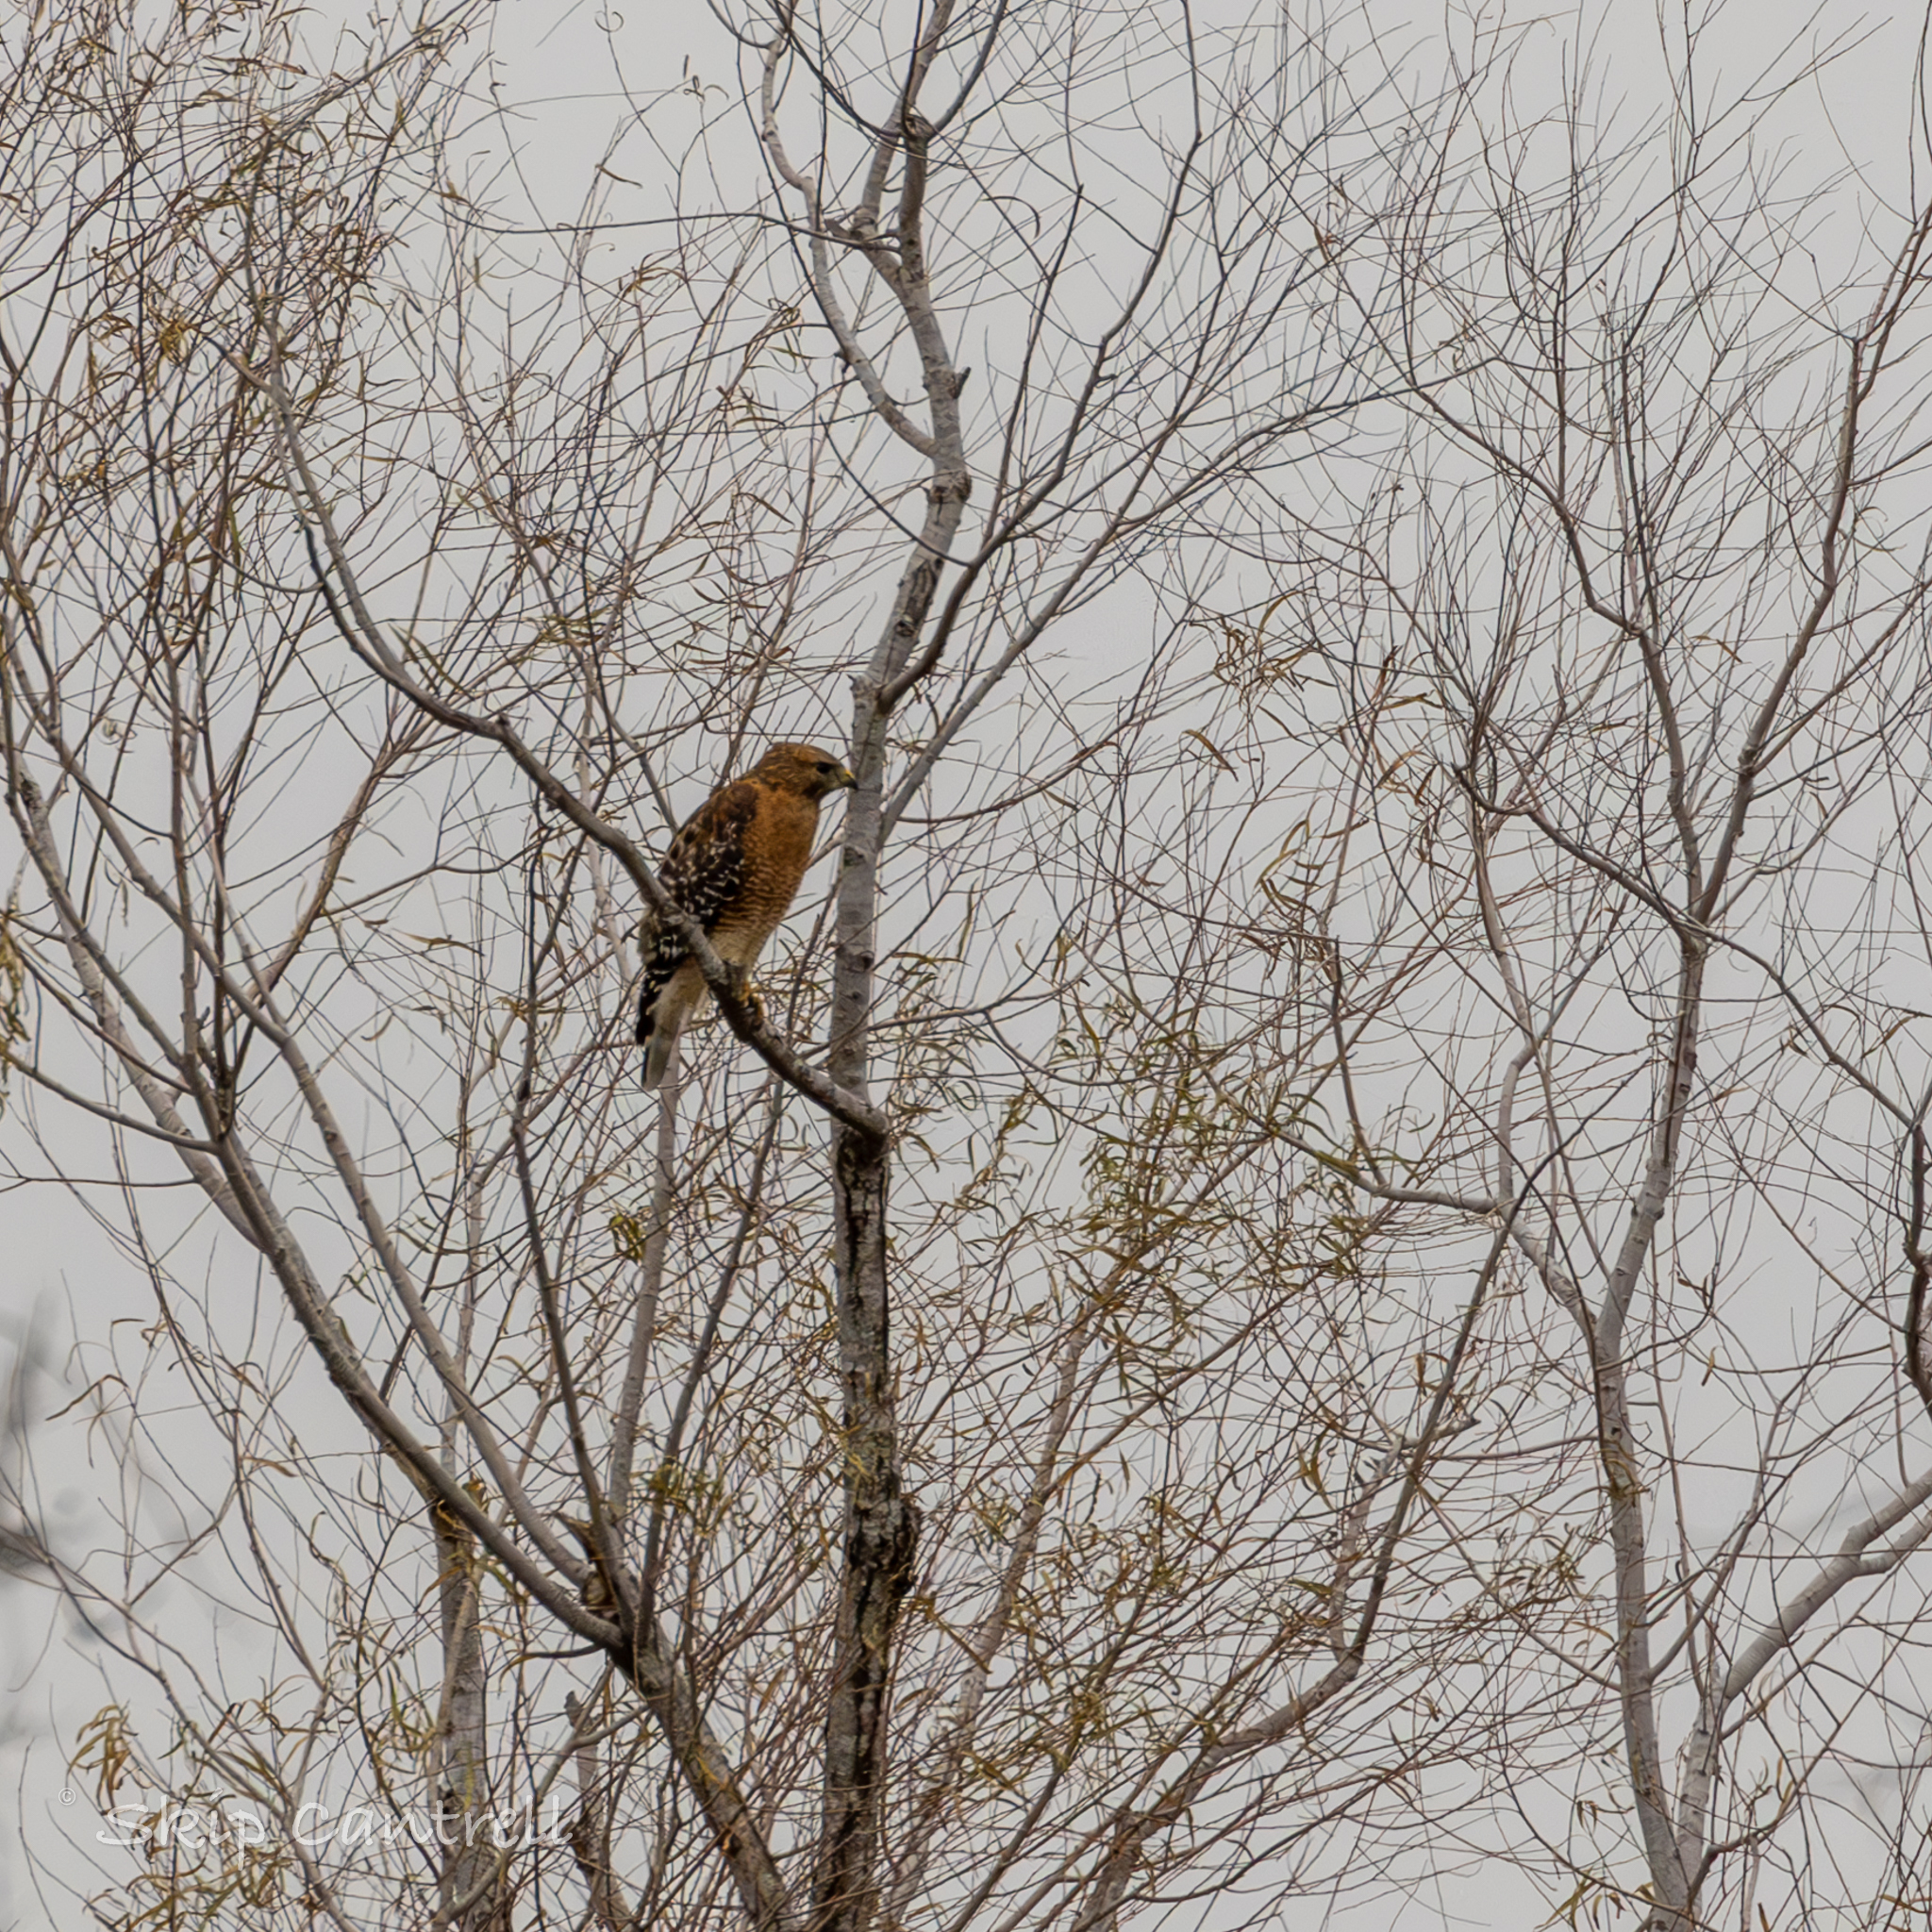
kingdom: Animalia
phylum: Chordata
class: Aves
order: Accipitriformes
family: Accipitridae
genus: Buteo
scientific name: Buteo lineatus
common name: Red-shouldered hawk
